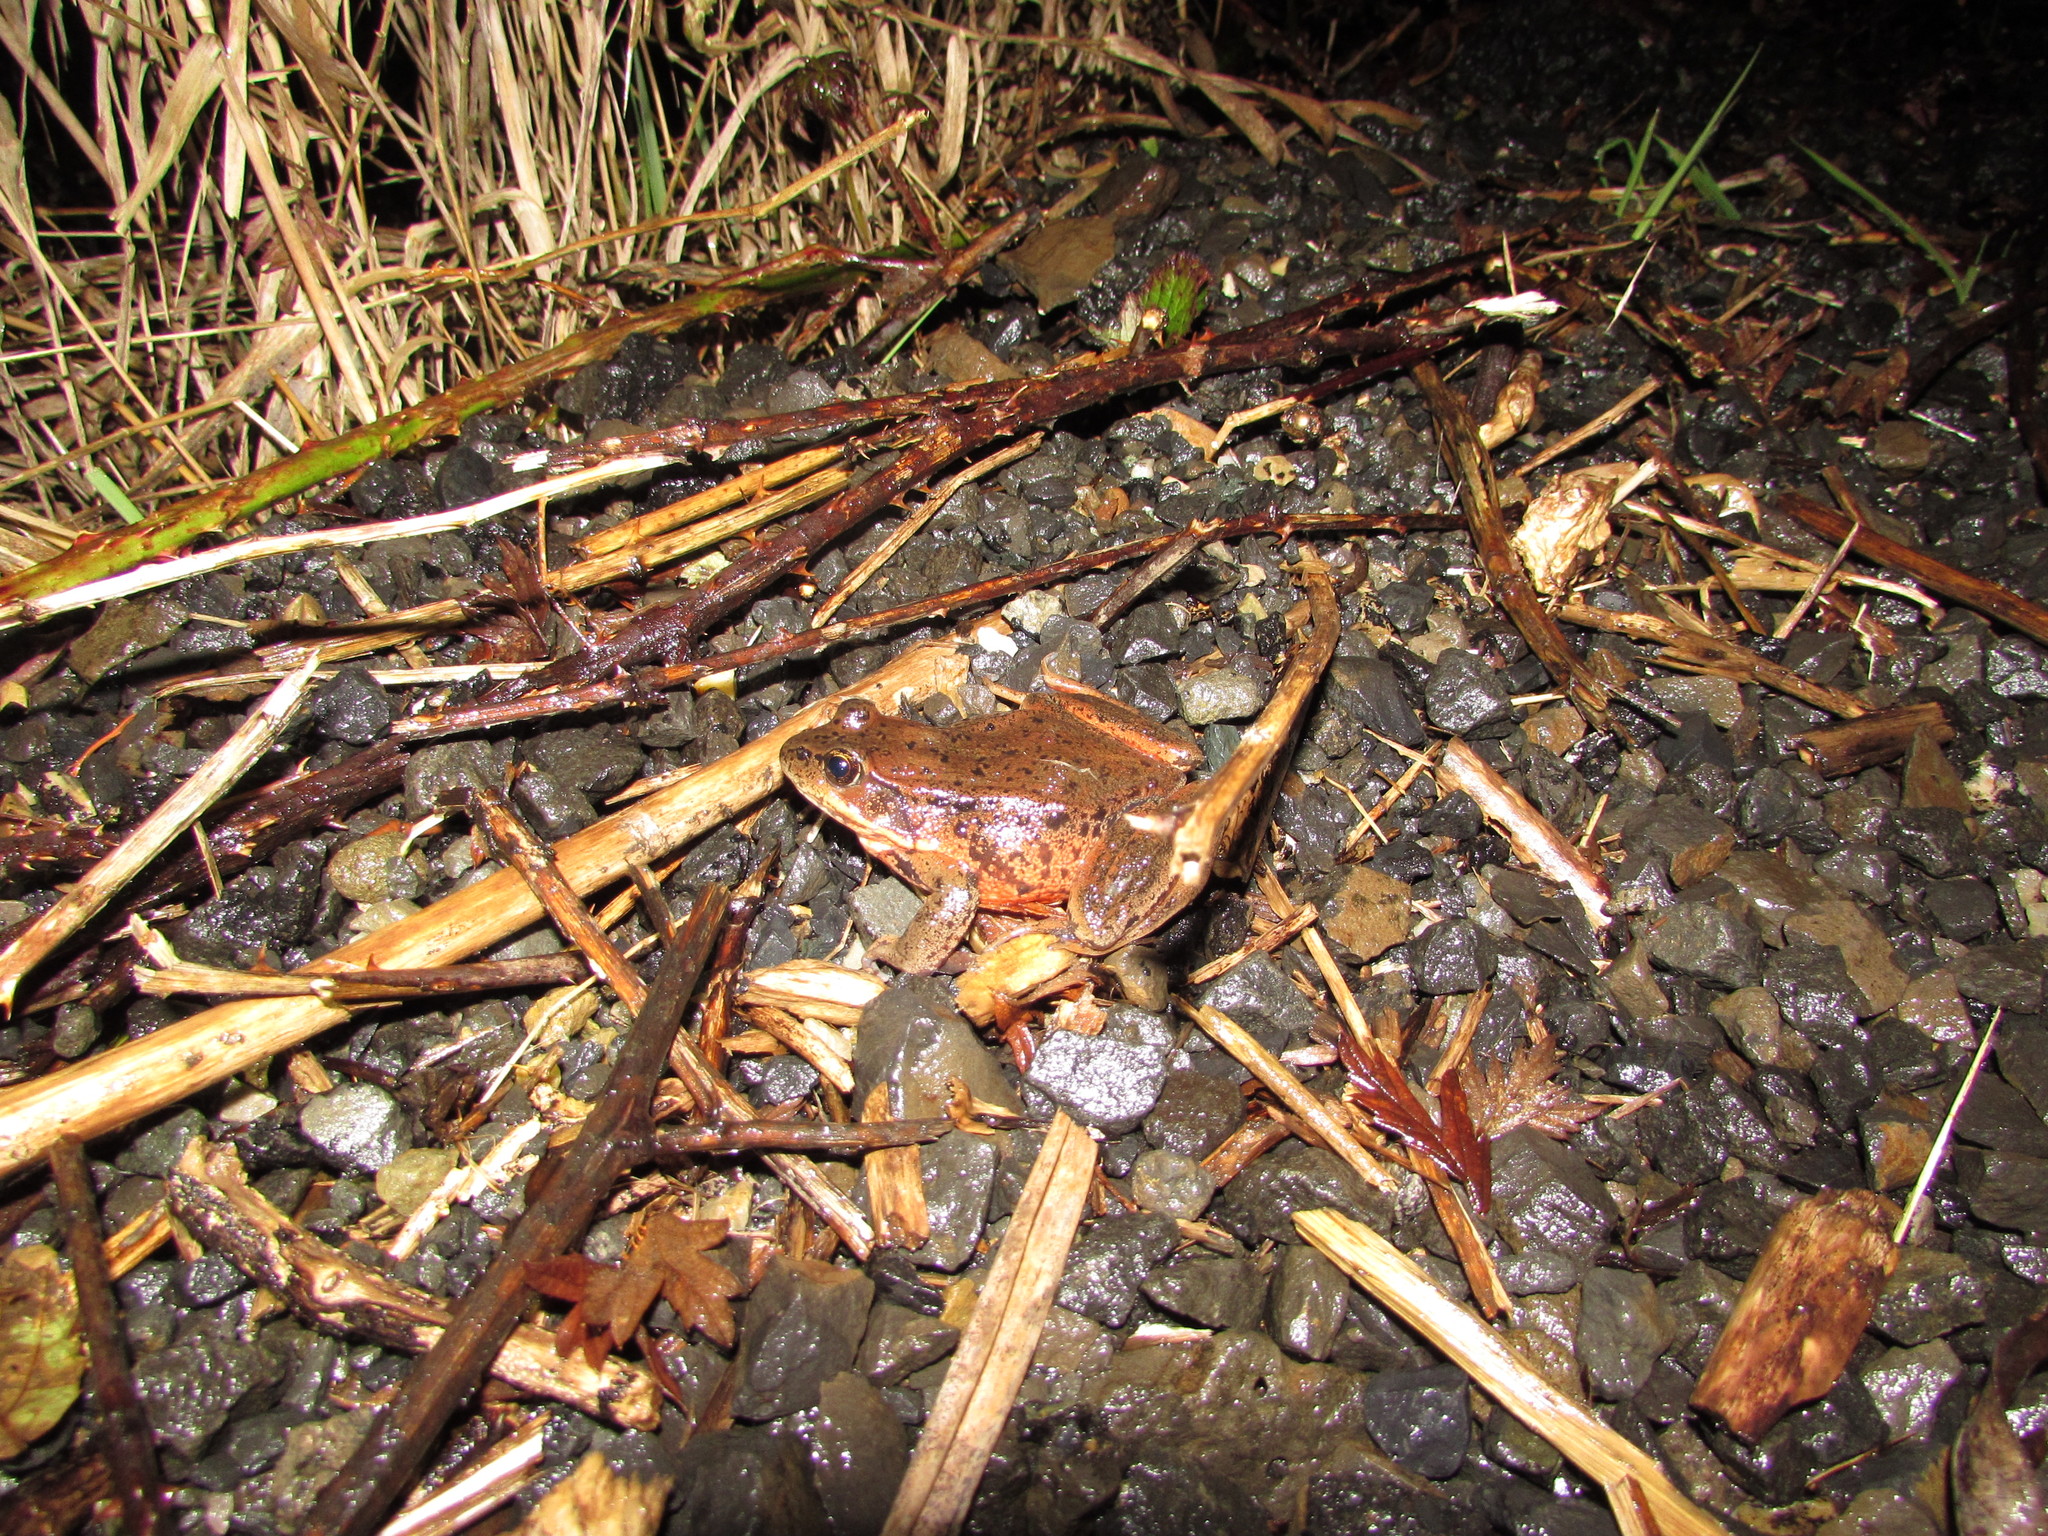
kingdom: Animalia
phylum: Chordata
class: Amphibia
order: Anura
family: Ranidae
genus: Rana
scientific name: Rana aurora
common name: Red-legged frog
